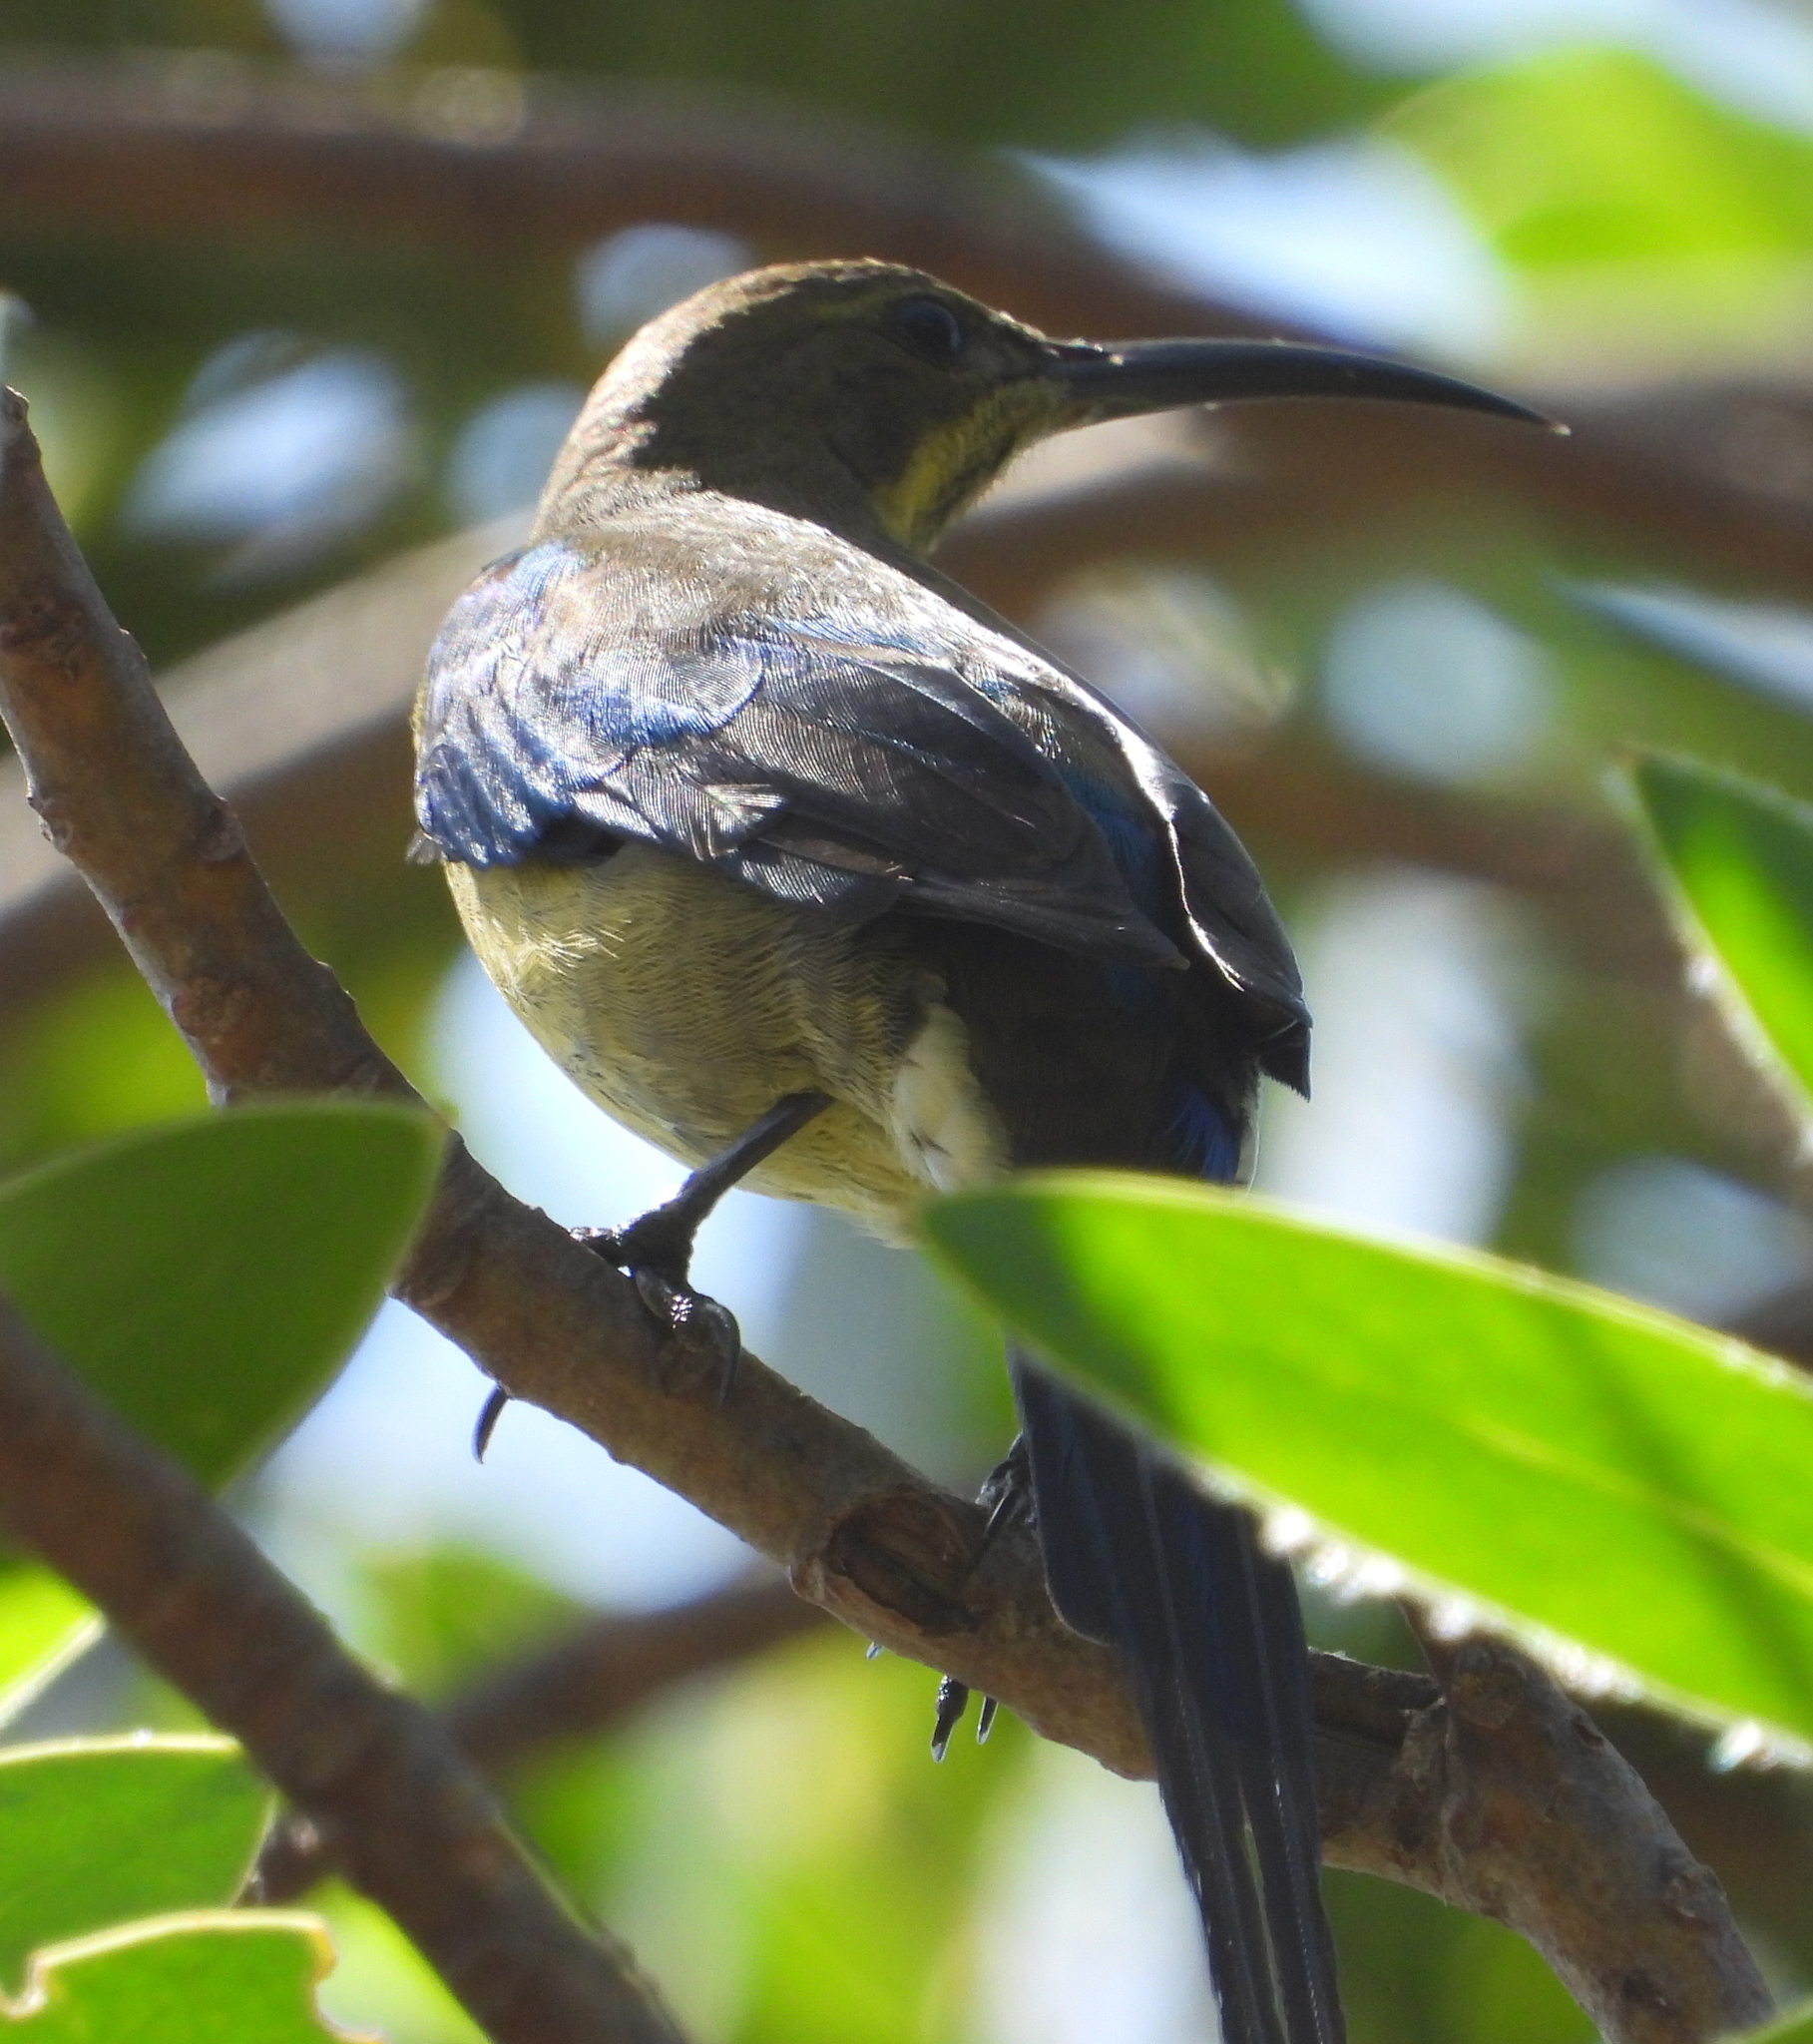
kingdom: Animalia
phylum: Chordata
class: Aves
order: Passeriformes
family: Nectariniidae
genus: Nectarinia
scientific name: Nectarinia famosa
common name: Malachite sunbird
